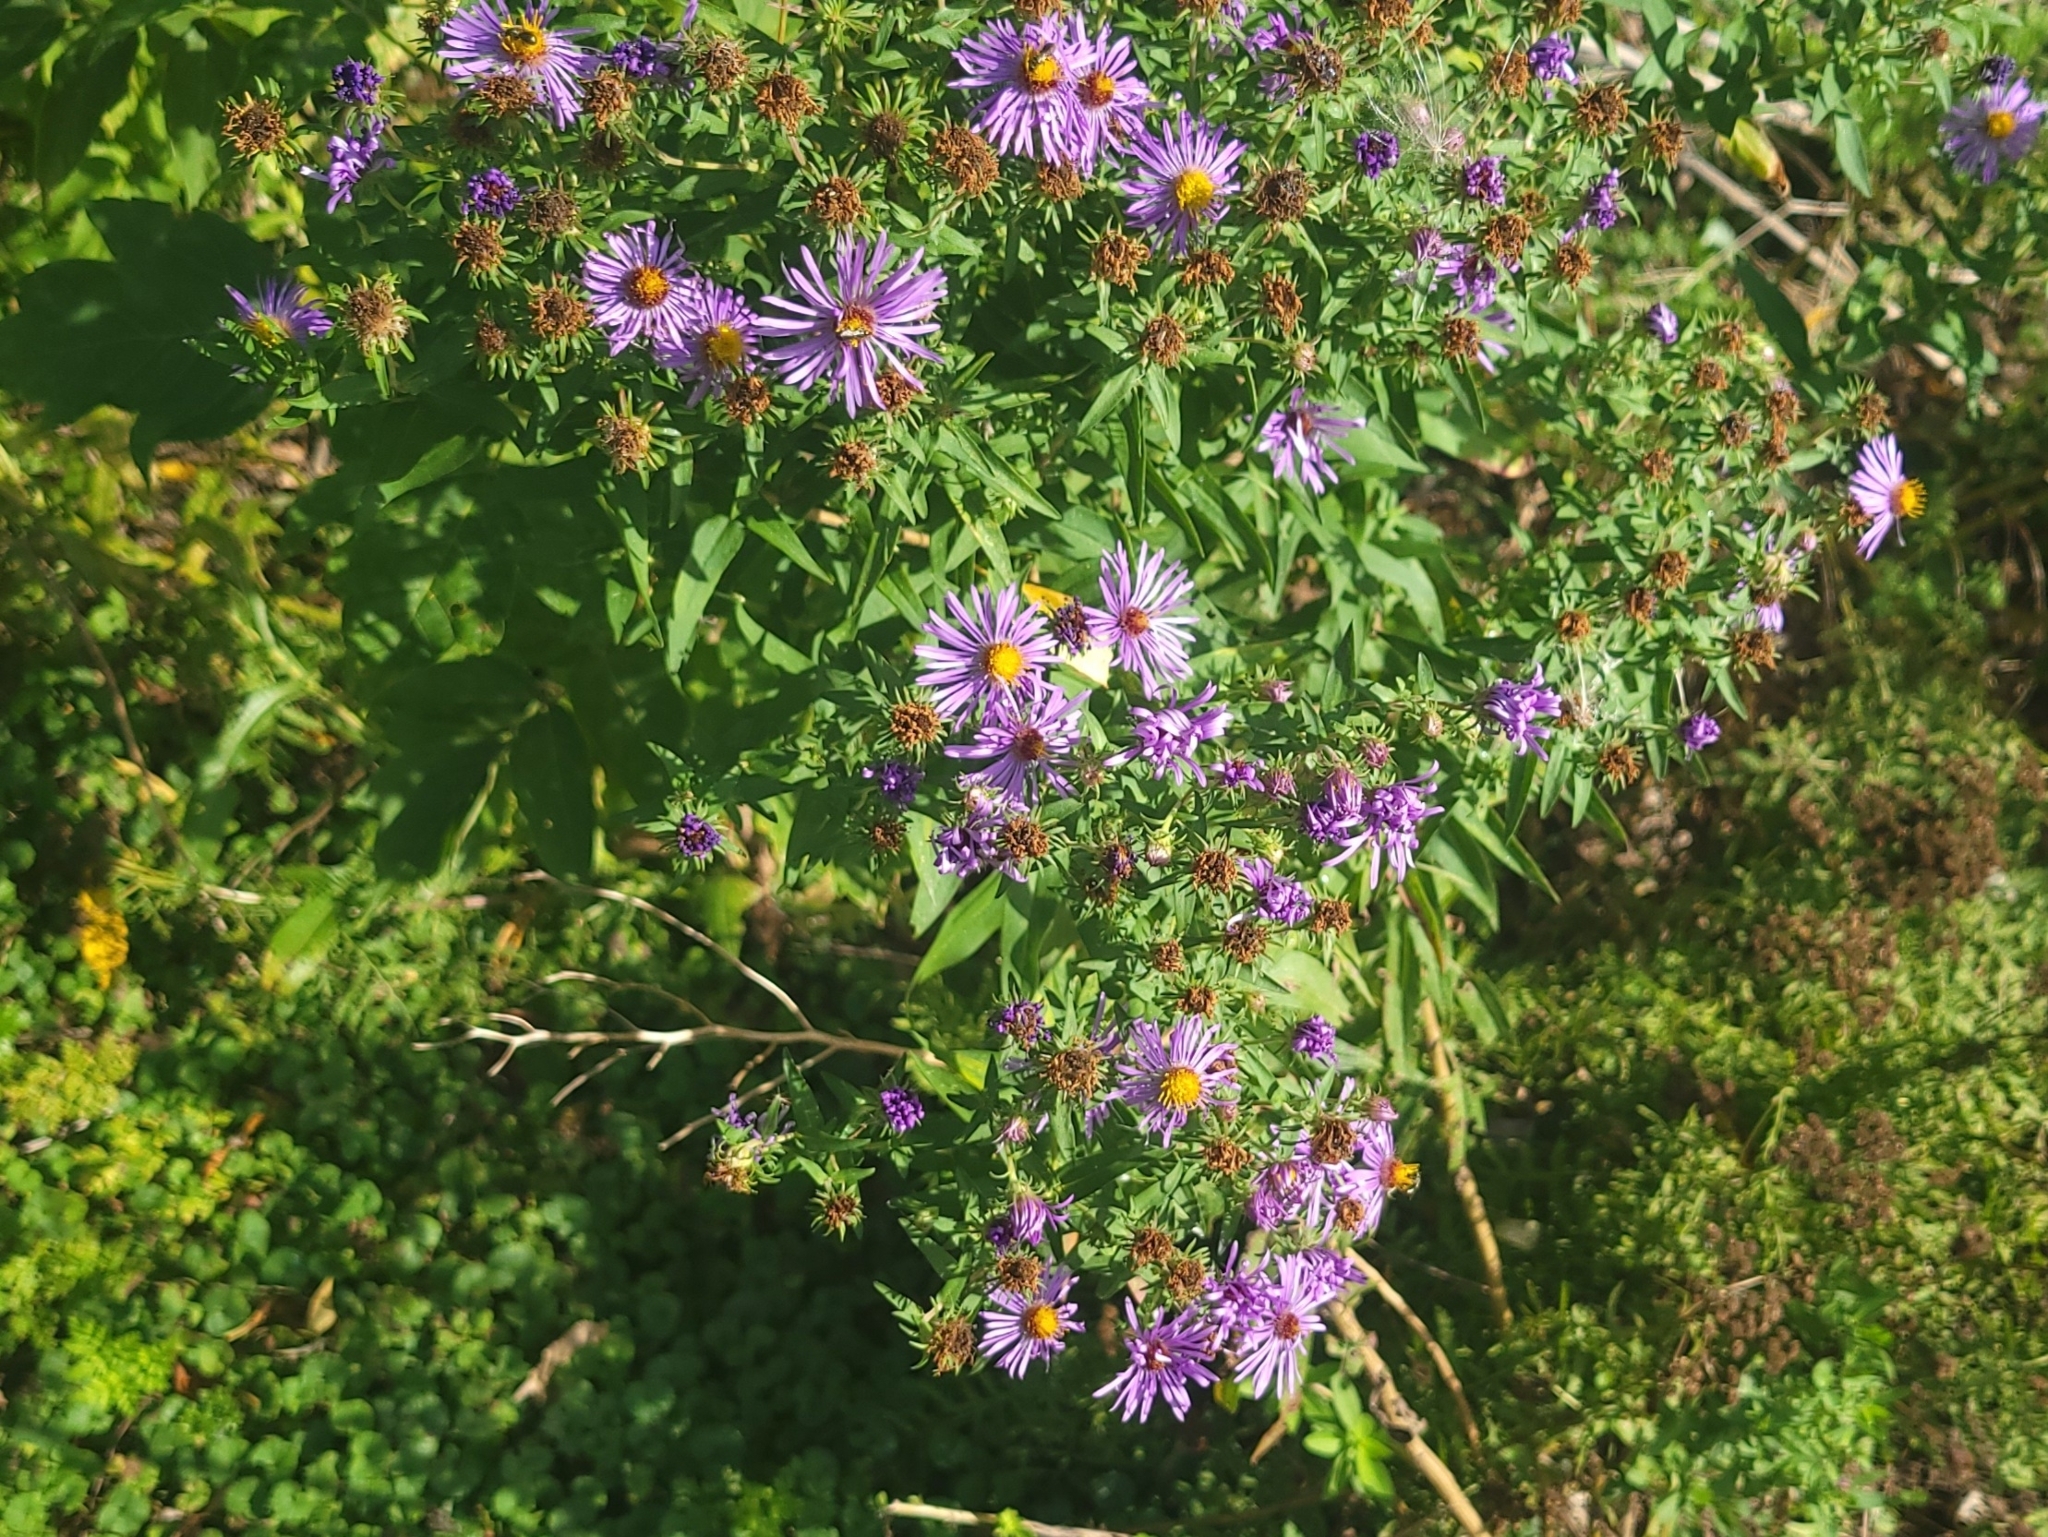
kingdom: Plantae
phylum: Tracheophyta
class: Magnoliopsida
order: Asterales
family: Asteraceae
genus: Symphyotrichum
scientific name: Symphyotrichum novae-angliae
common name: Michaelmas daisy
